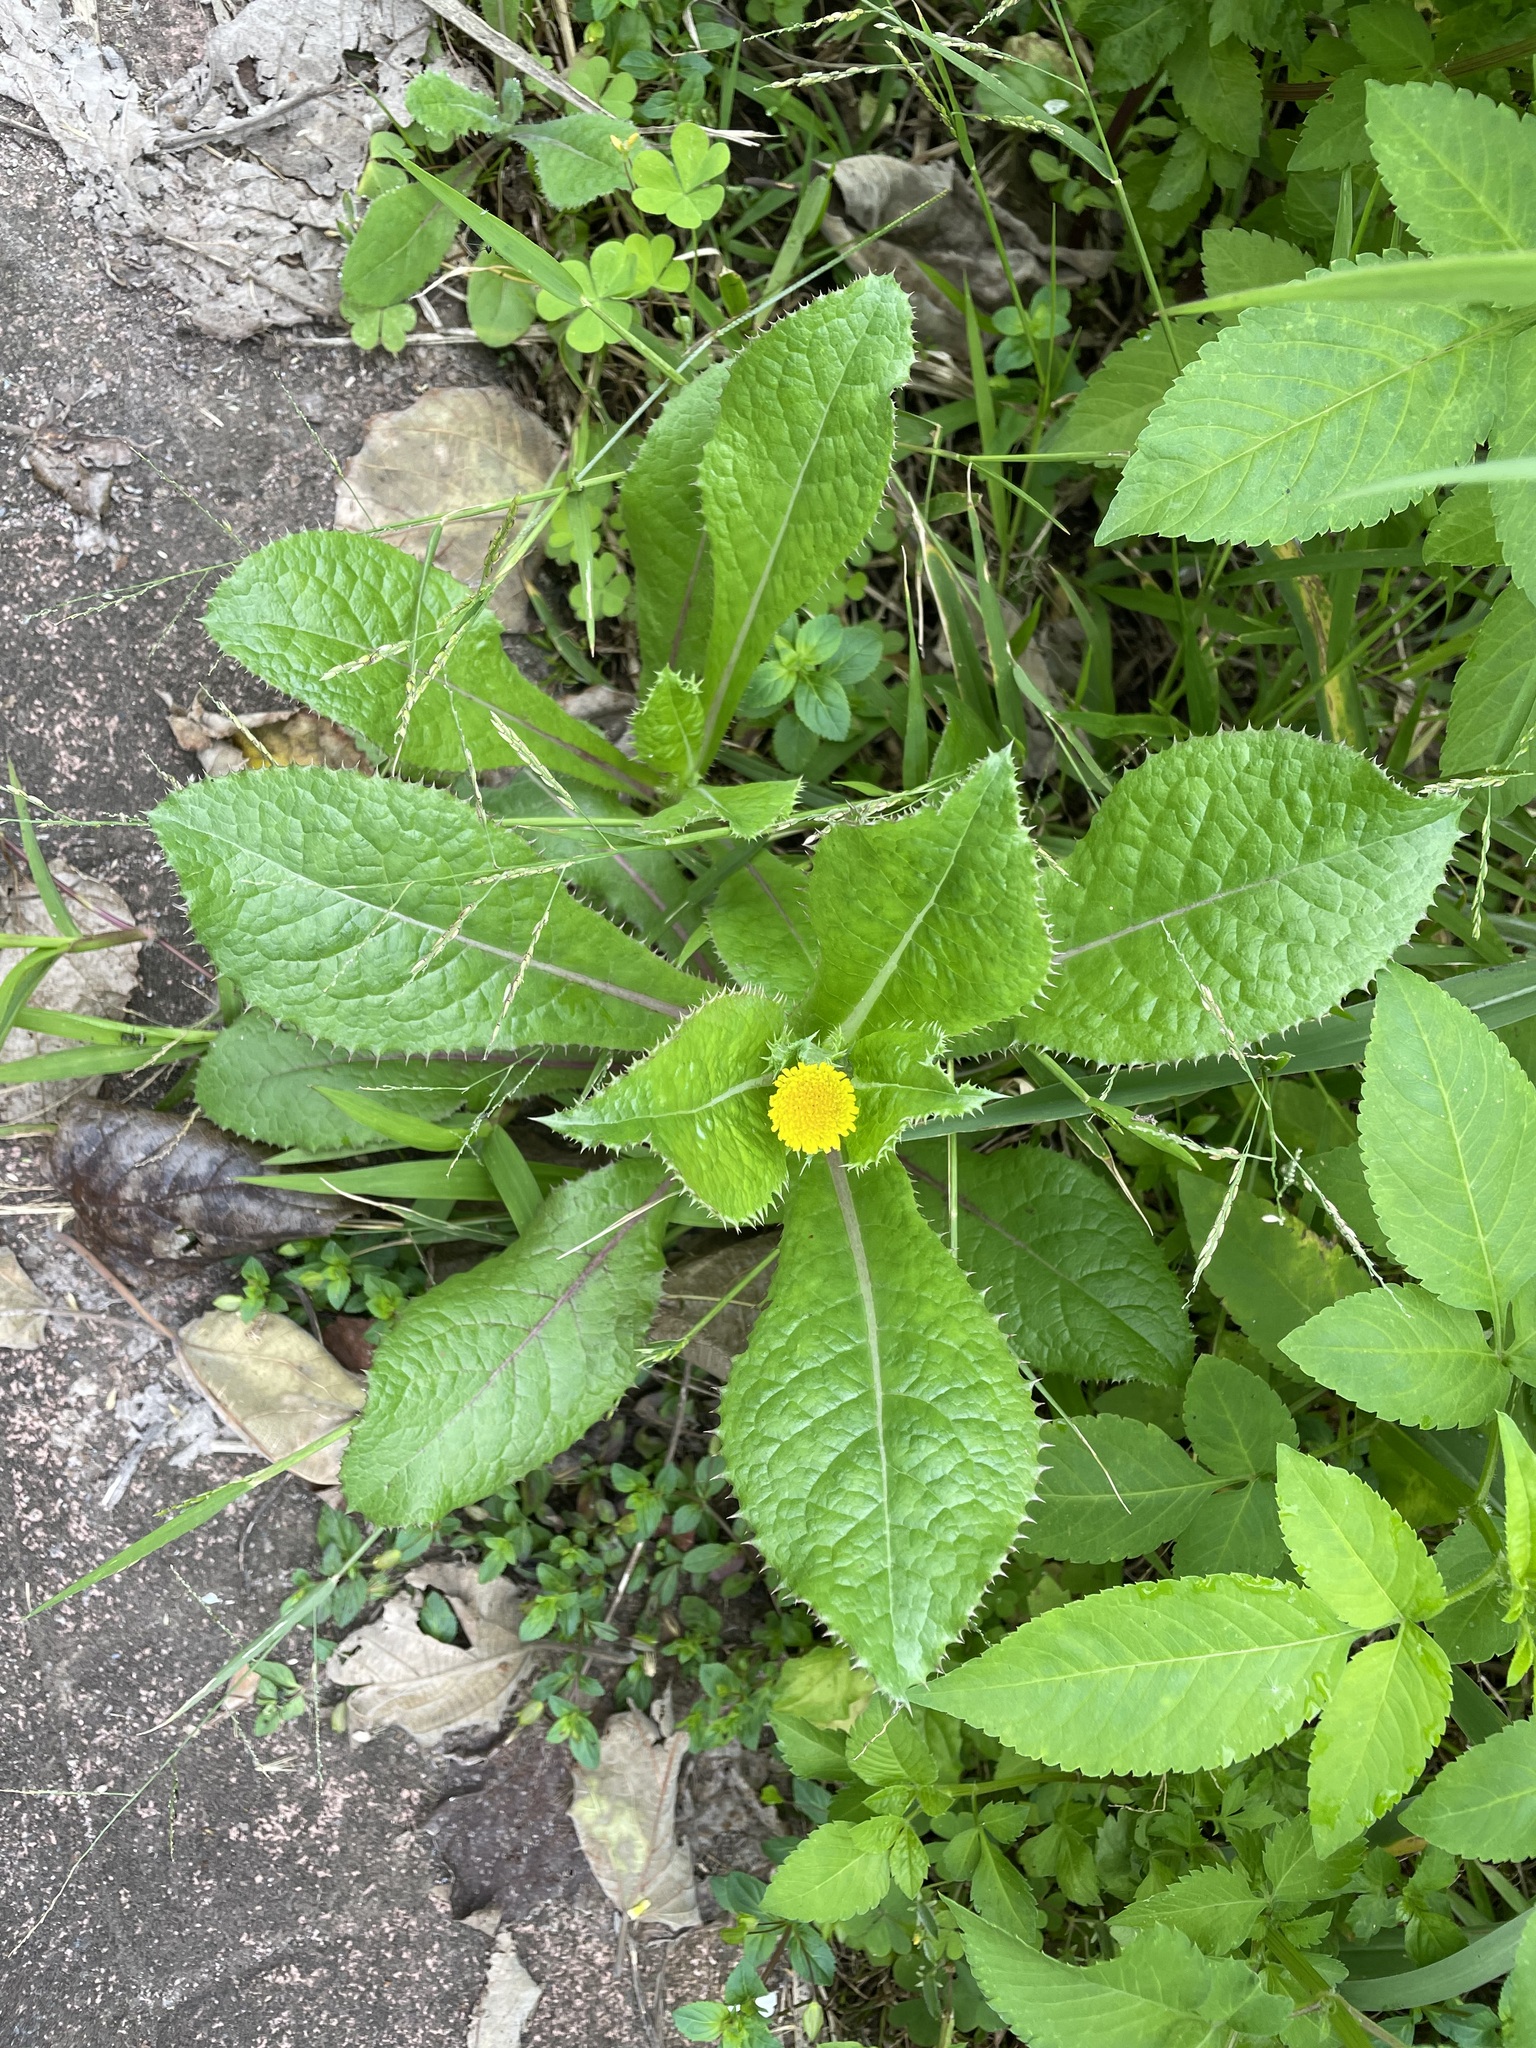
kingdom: Plantae
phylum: Tracheophyta
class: Magnoliopsida
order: Asterales
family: Asteraceae
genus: Sonchus
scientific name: Sonchus asper
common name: Prickly sow-thistle
